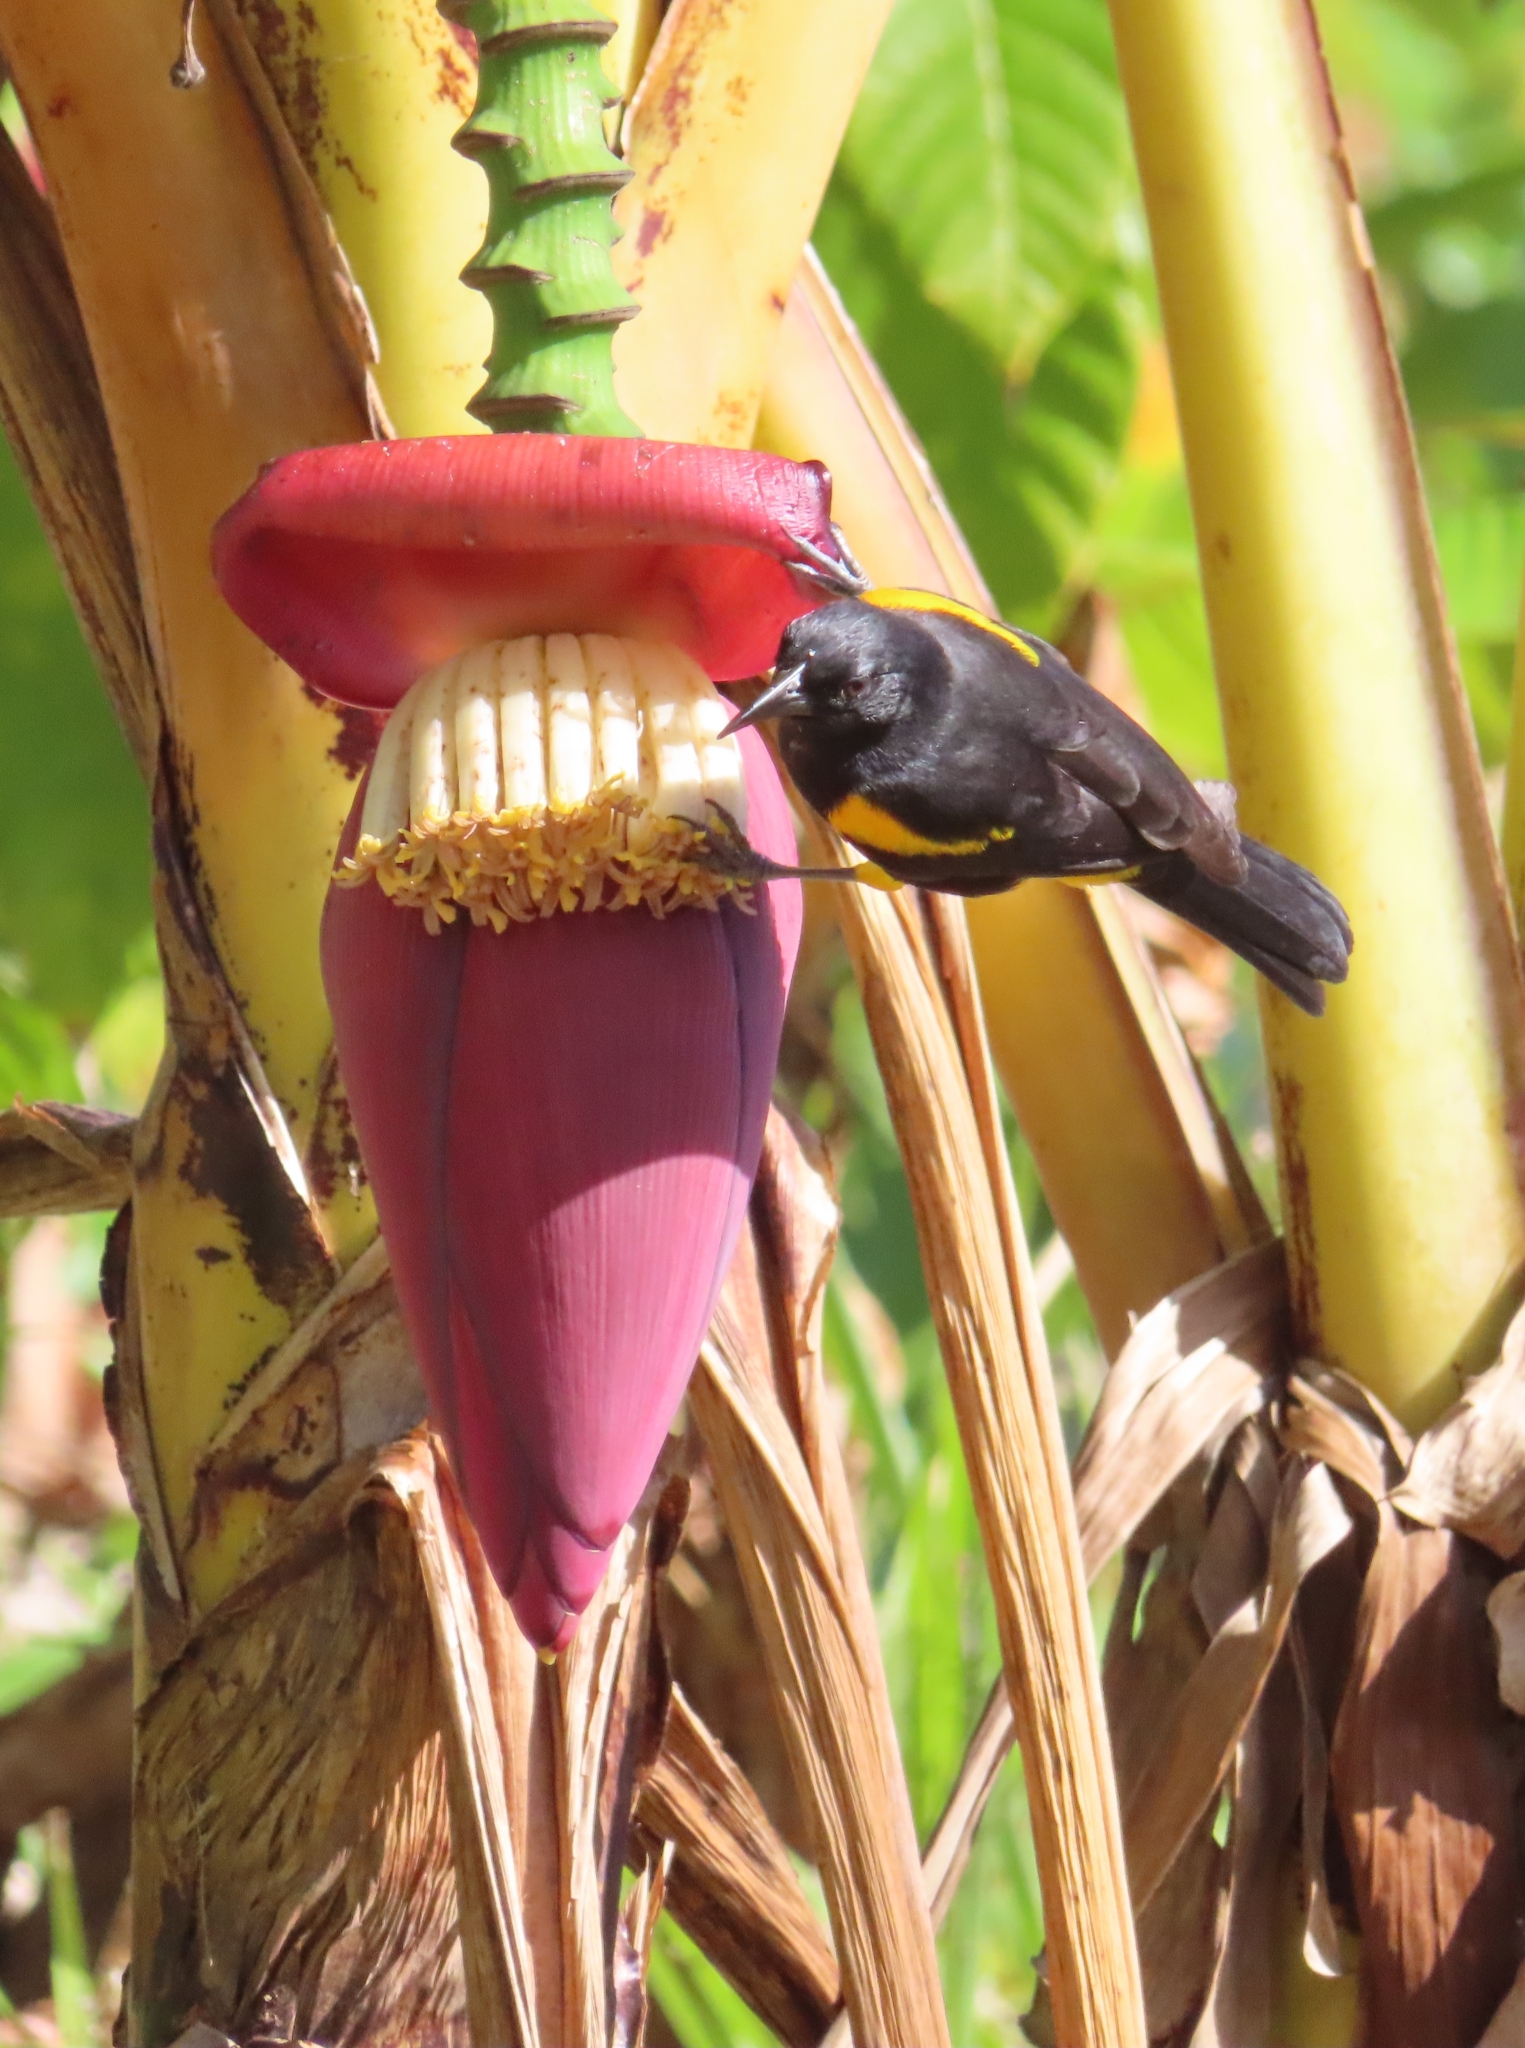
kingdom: Animalia
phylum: Chordata
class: Aves
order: Passeriformes
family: Icteridae
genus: Icterus
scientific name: Icterus portoricensis
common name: Puerto rican oriole
